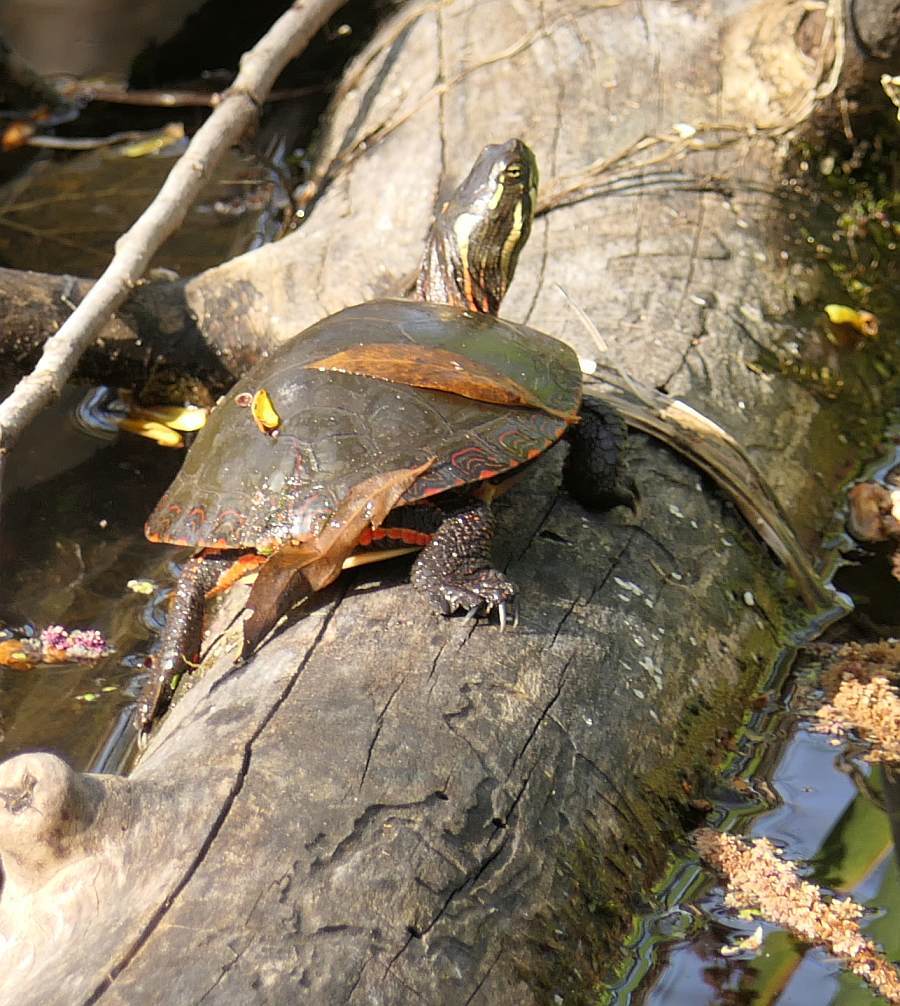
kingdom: Animalia
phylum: Chordata
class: Testudines
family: Emydidae
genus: Chrysemys
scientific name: Chrysemys picta
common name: Painted turtle
